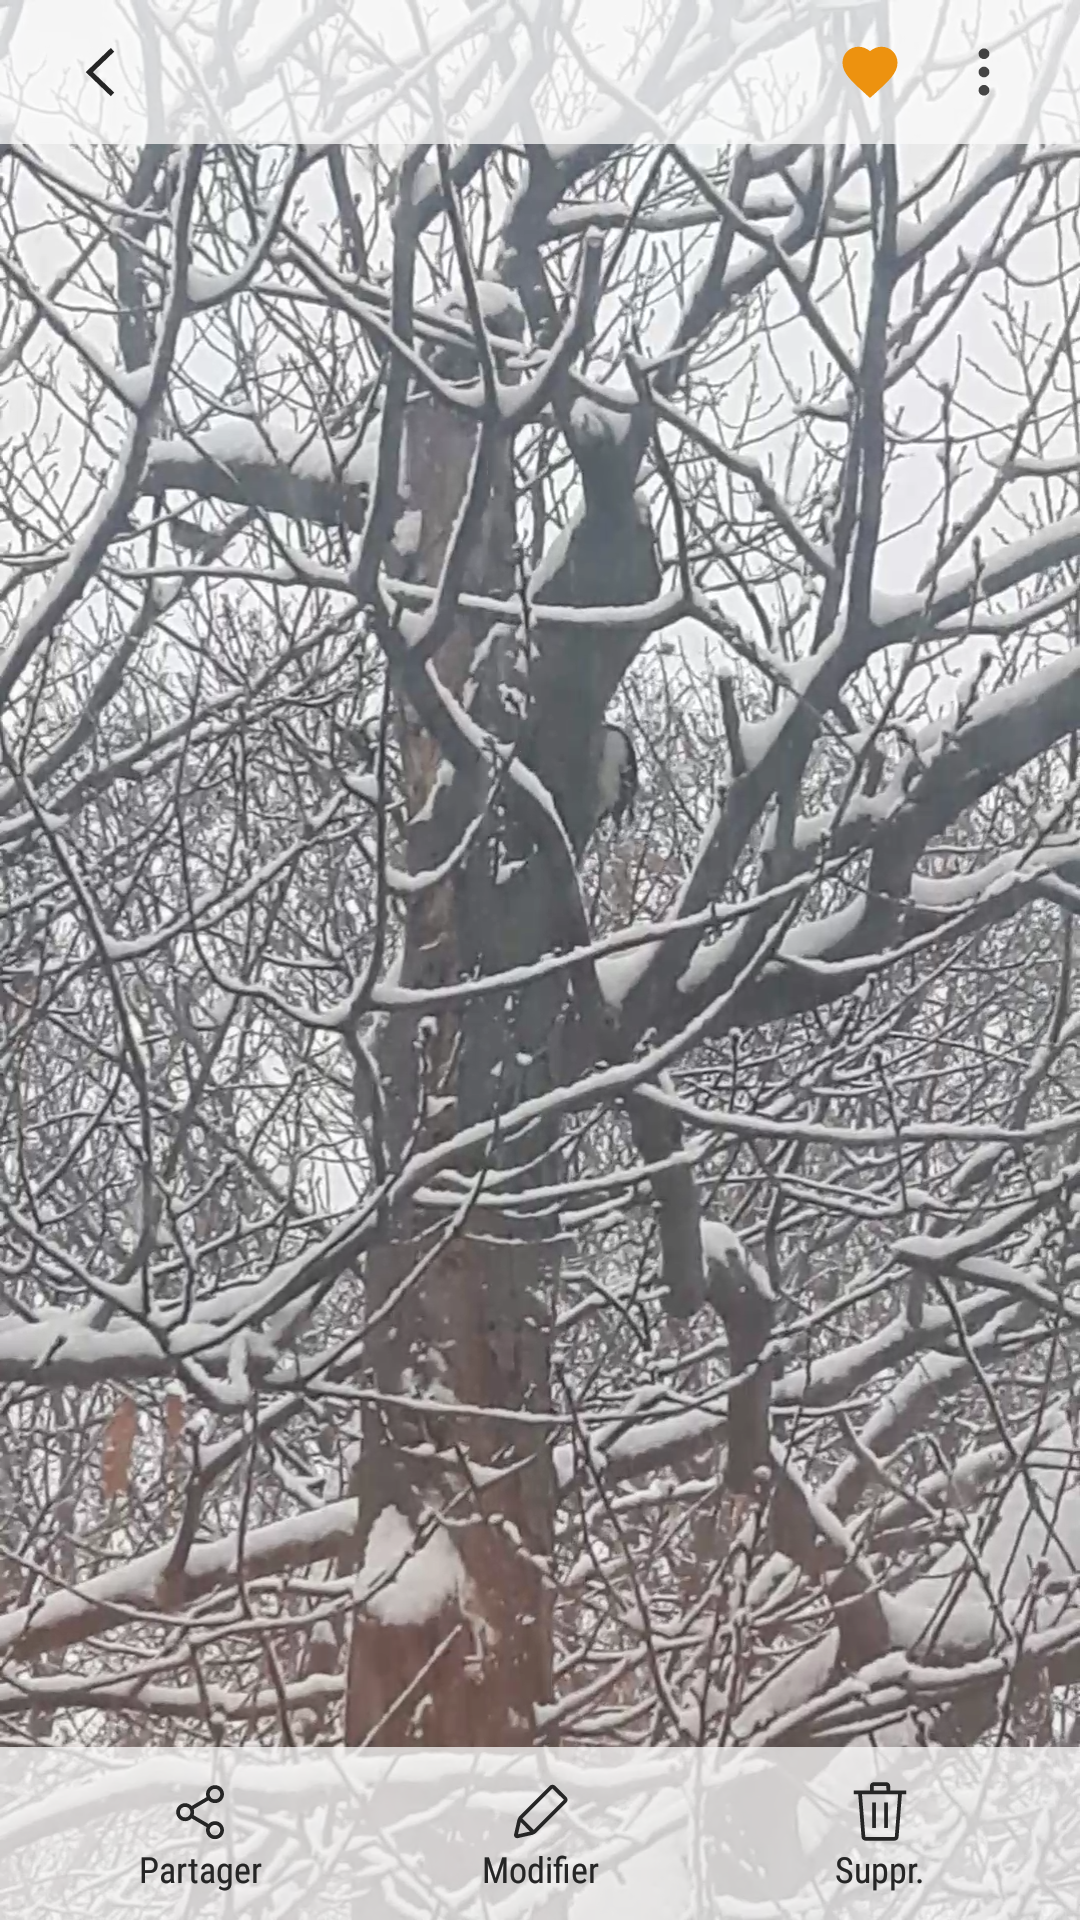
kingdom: Animalia
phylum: Chordata
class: Aves
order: Piciformes
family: Picidae
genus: Leuconotopicus
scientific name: Leuconotopicus villosus
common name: Hairy woodpecker
